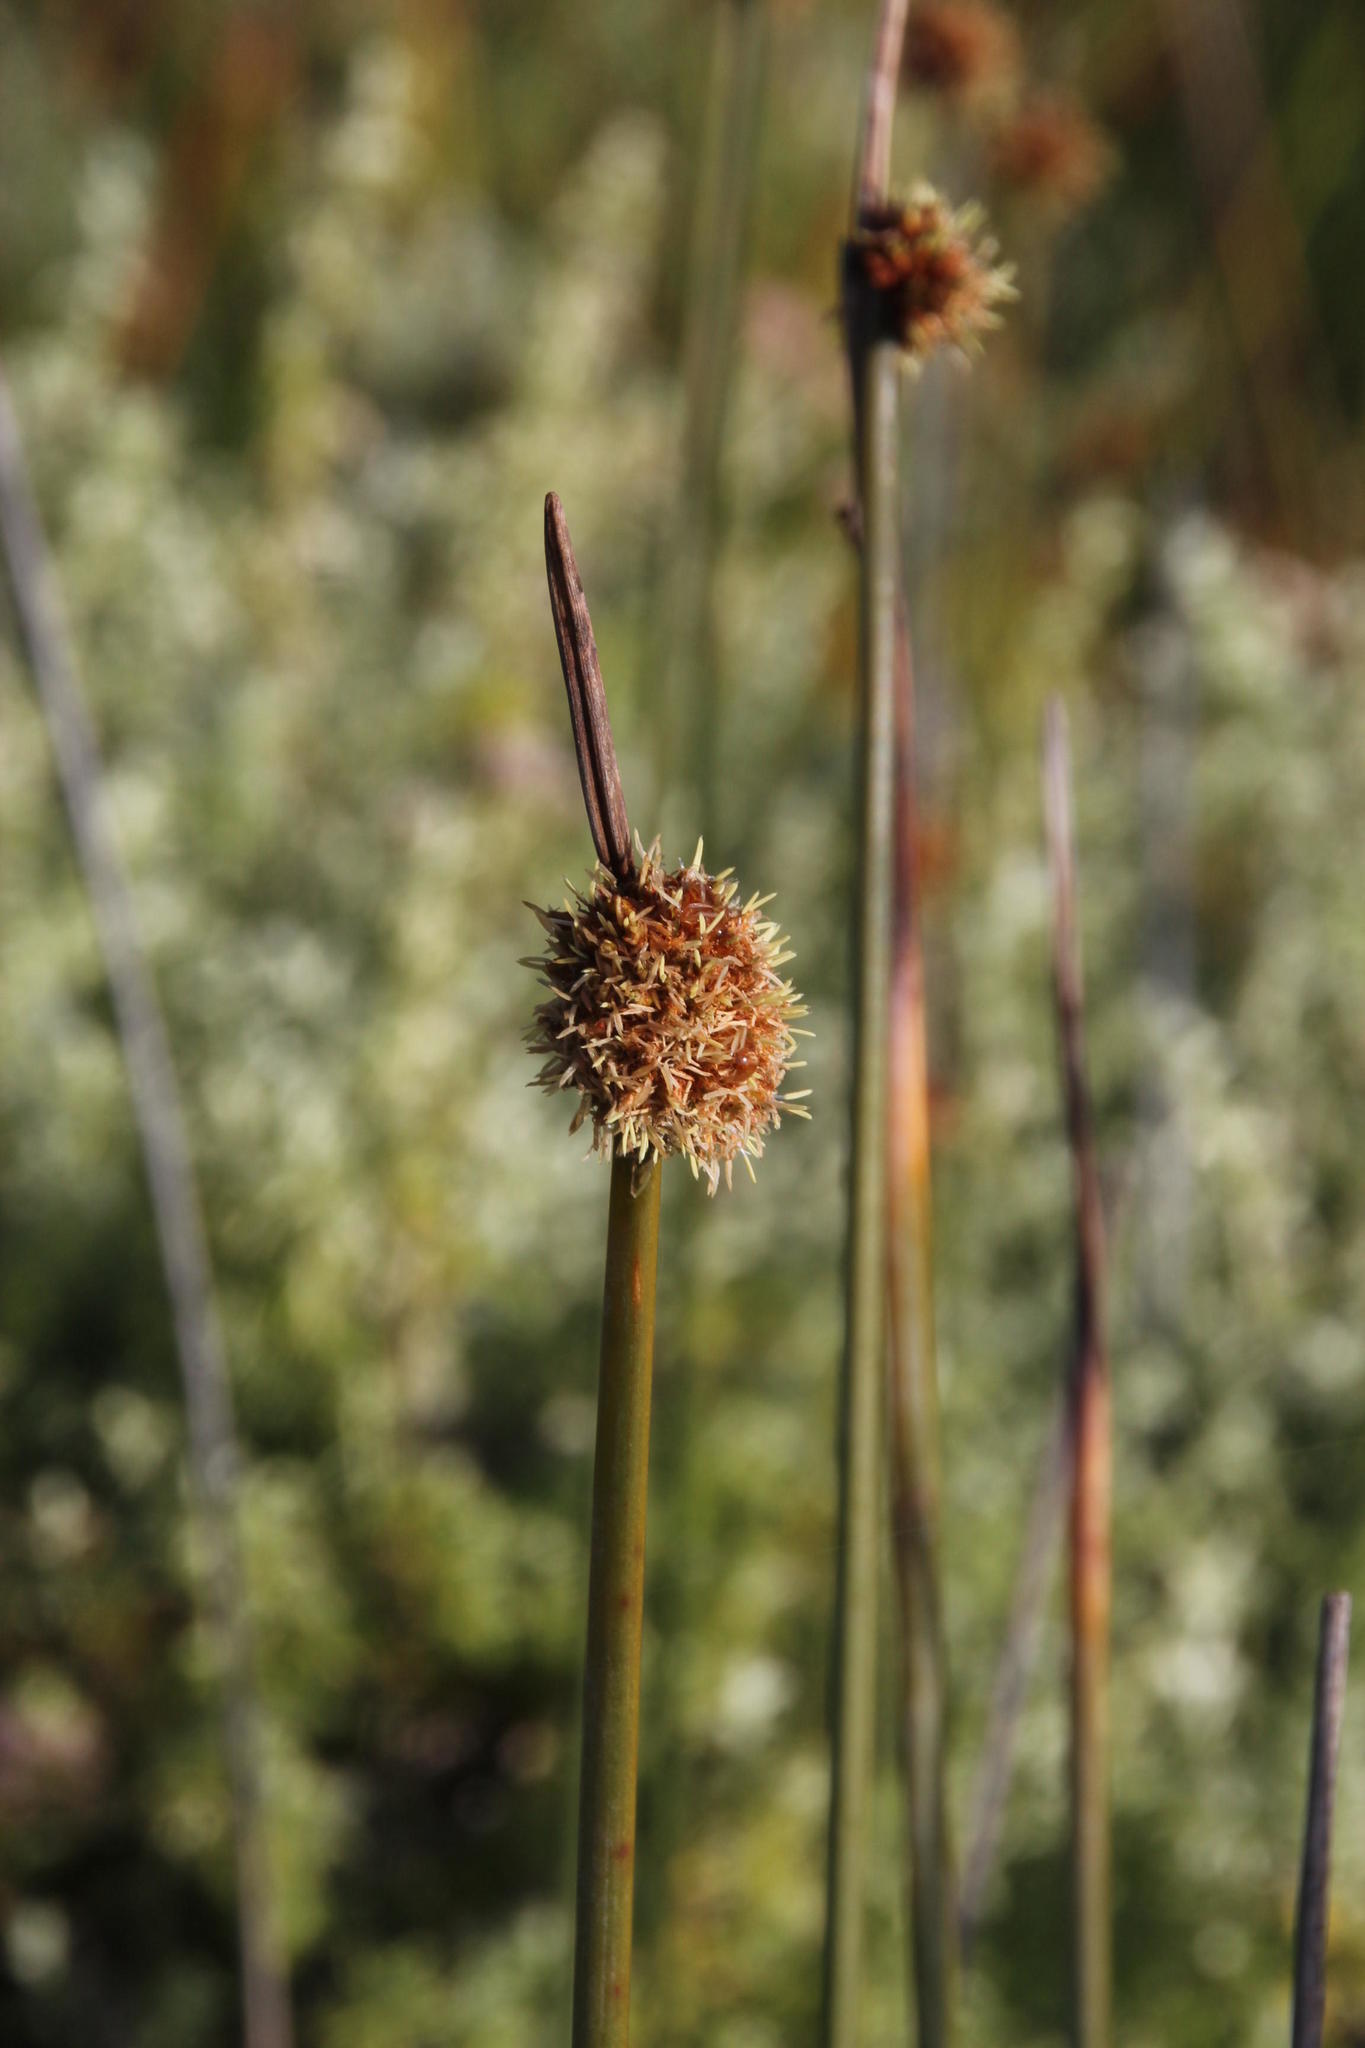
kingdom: Plantae
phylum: Tracheophyta
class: Liliopsida
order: Poales
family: Cyperaceae
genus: Ficinia
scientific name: Ficinia nodosa
